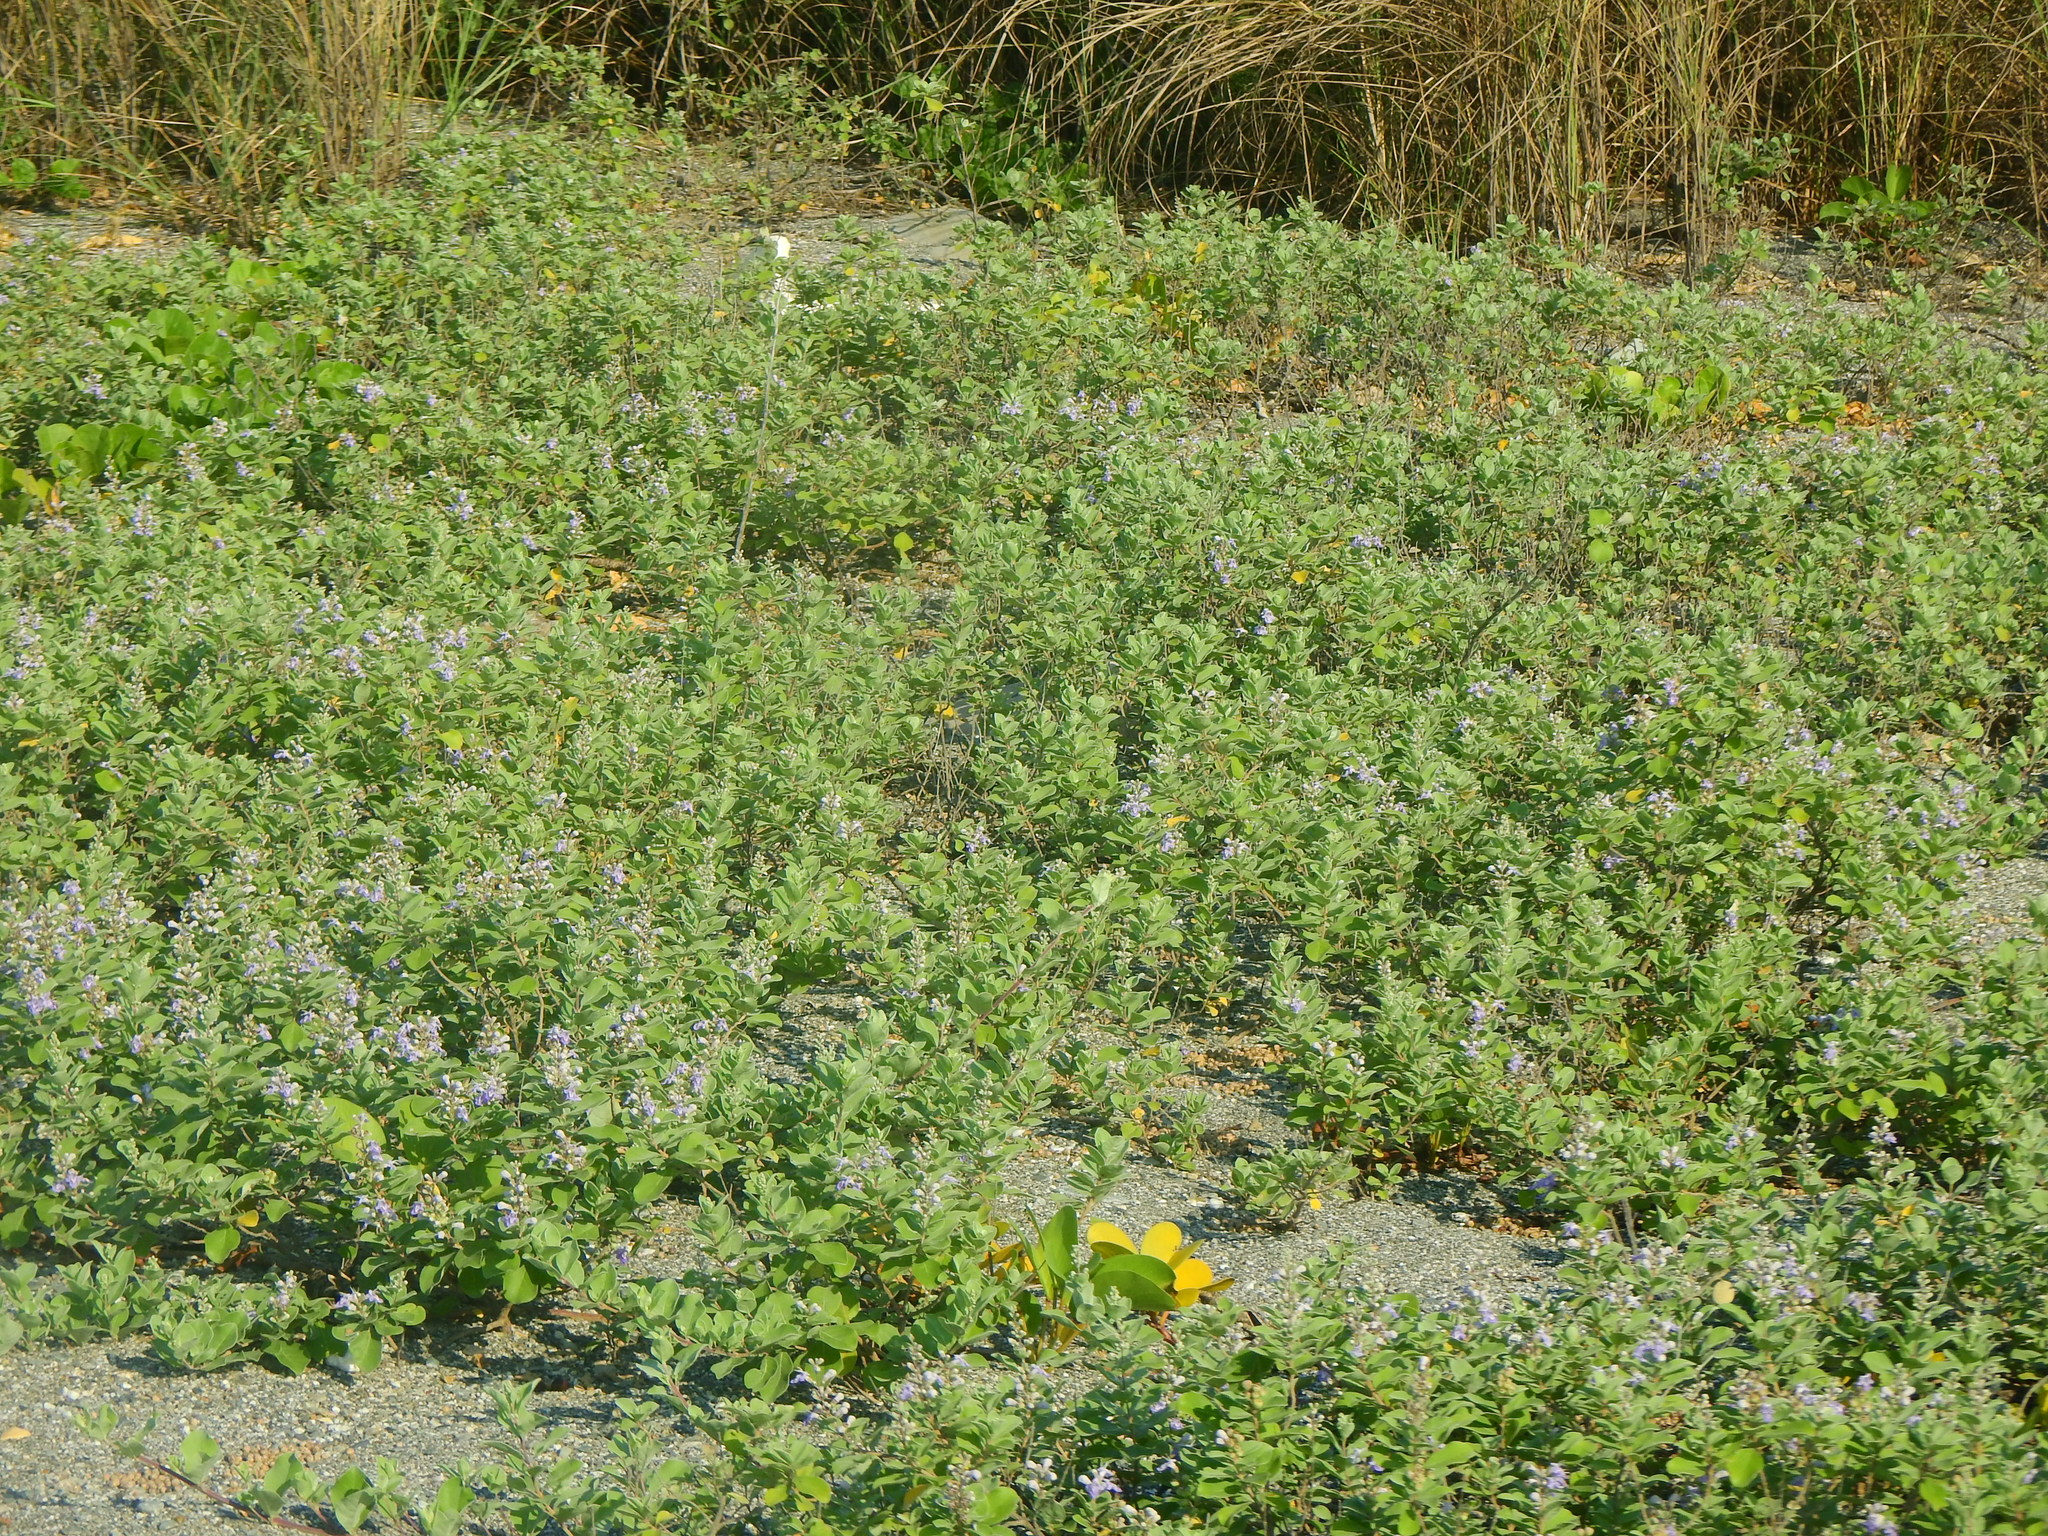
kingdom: Plantae
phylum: Tracheophyta
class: Magnoliopsida
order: Lamiales
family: Lamiaceae
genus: Vitex
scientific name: Vitex rotundifolia
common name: Beach vitex
